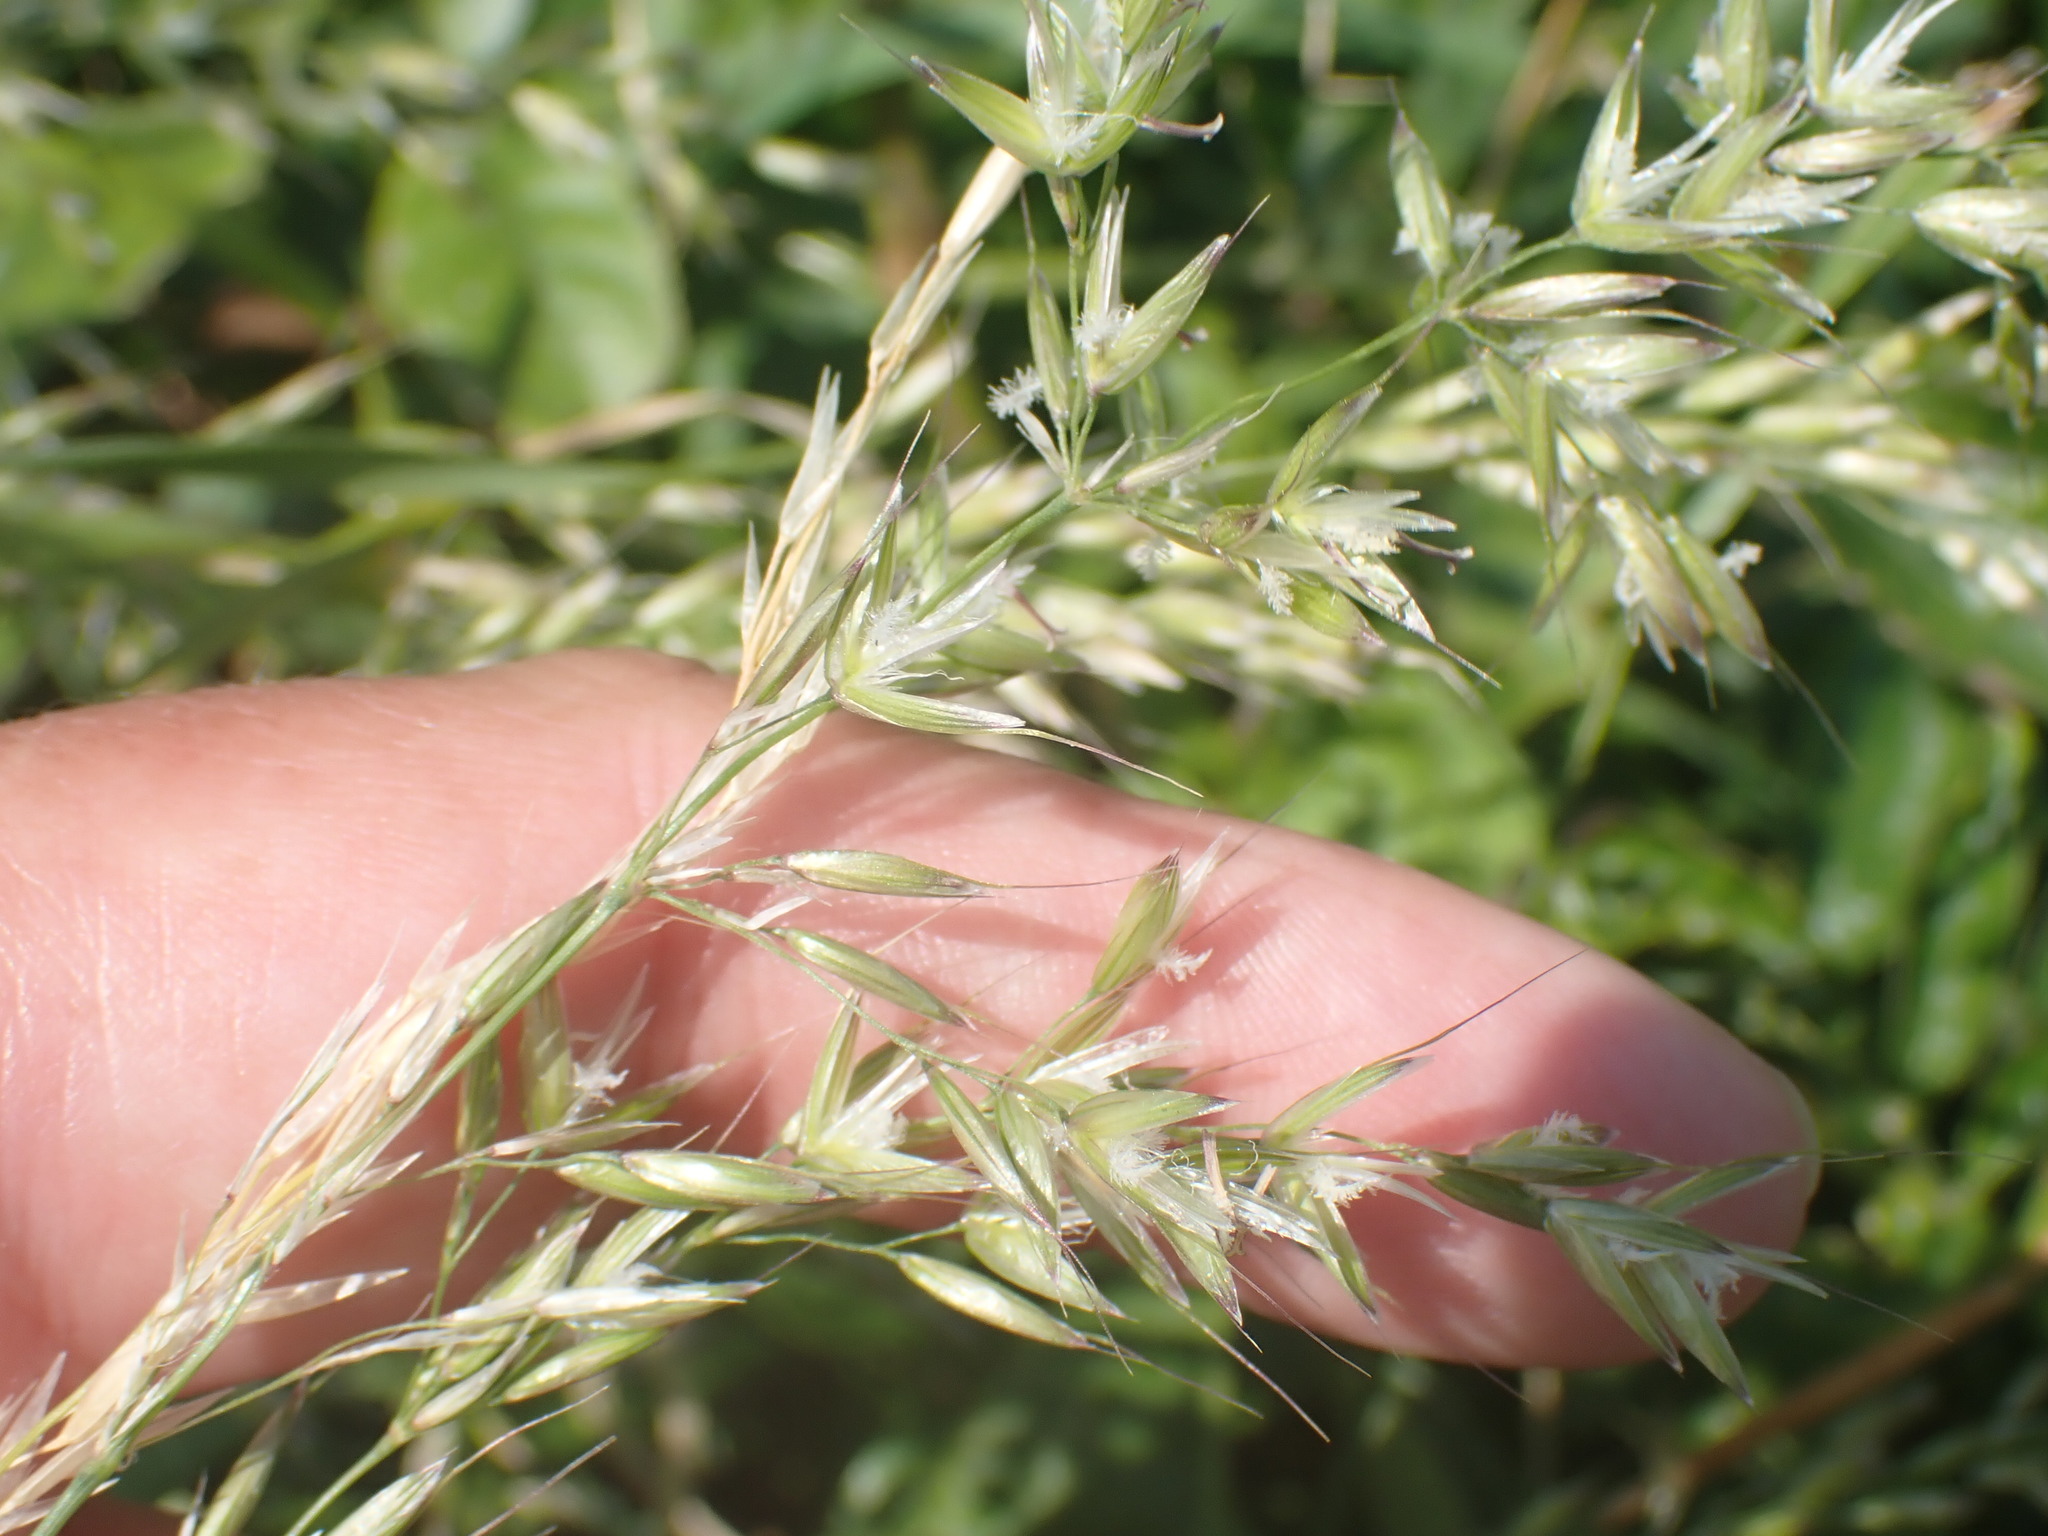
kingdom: Plantae
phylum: Tracheophyta
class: Liliopsida
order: Poales
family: Poaceae
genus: Arrhenatherum
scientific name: Arrhenatherum elatius
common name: Tall oatgrass
